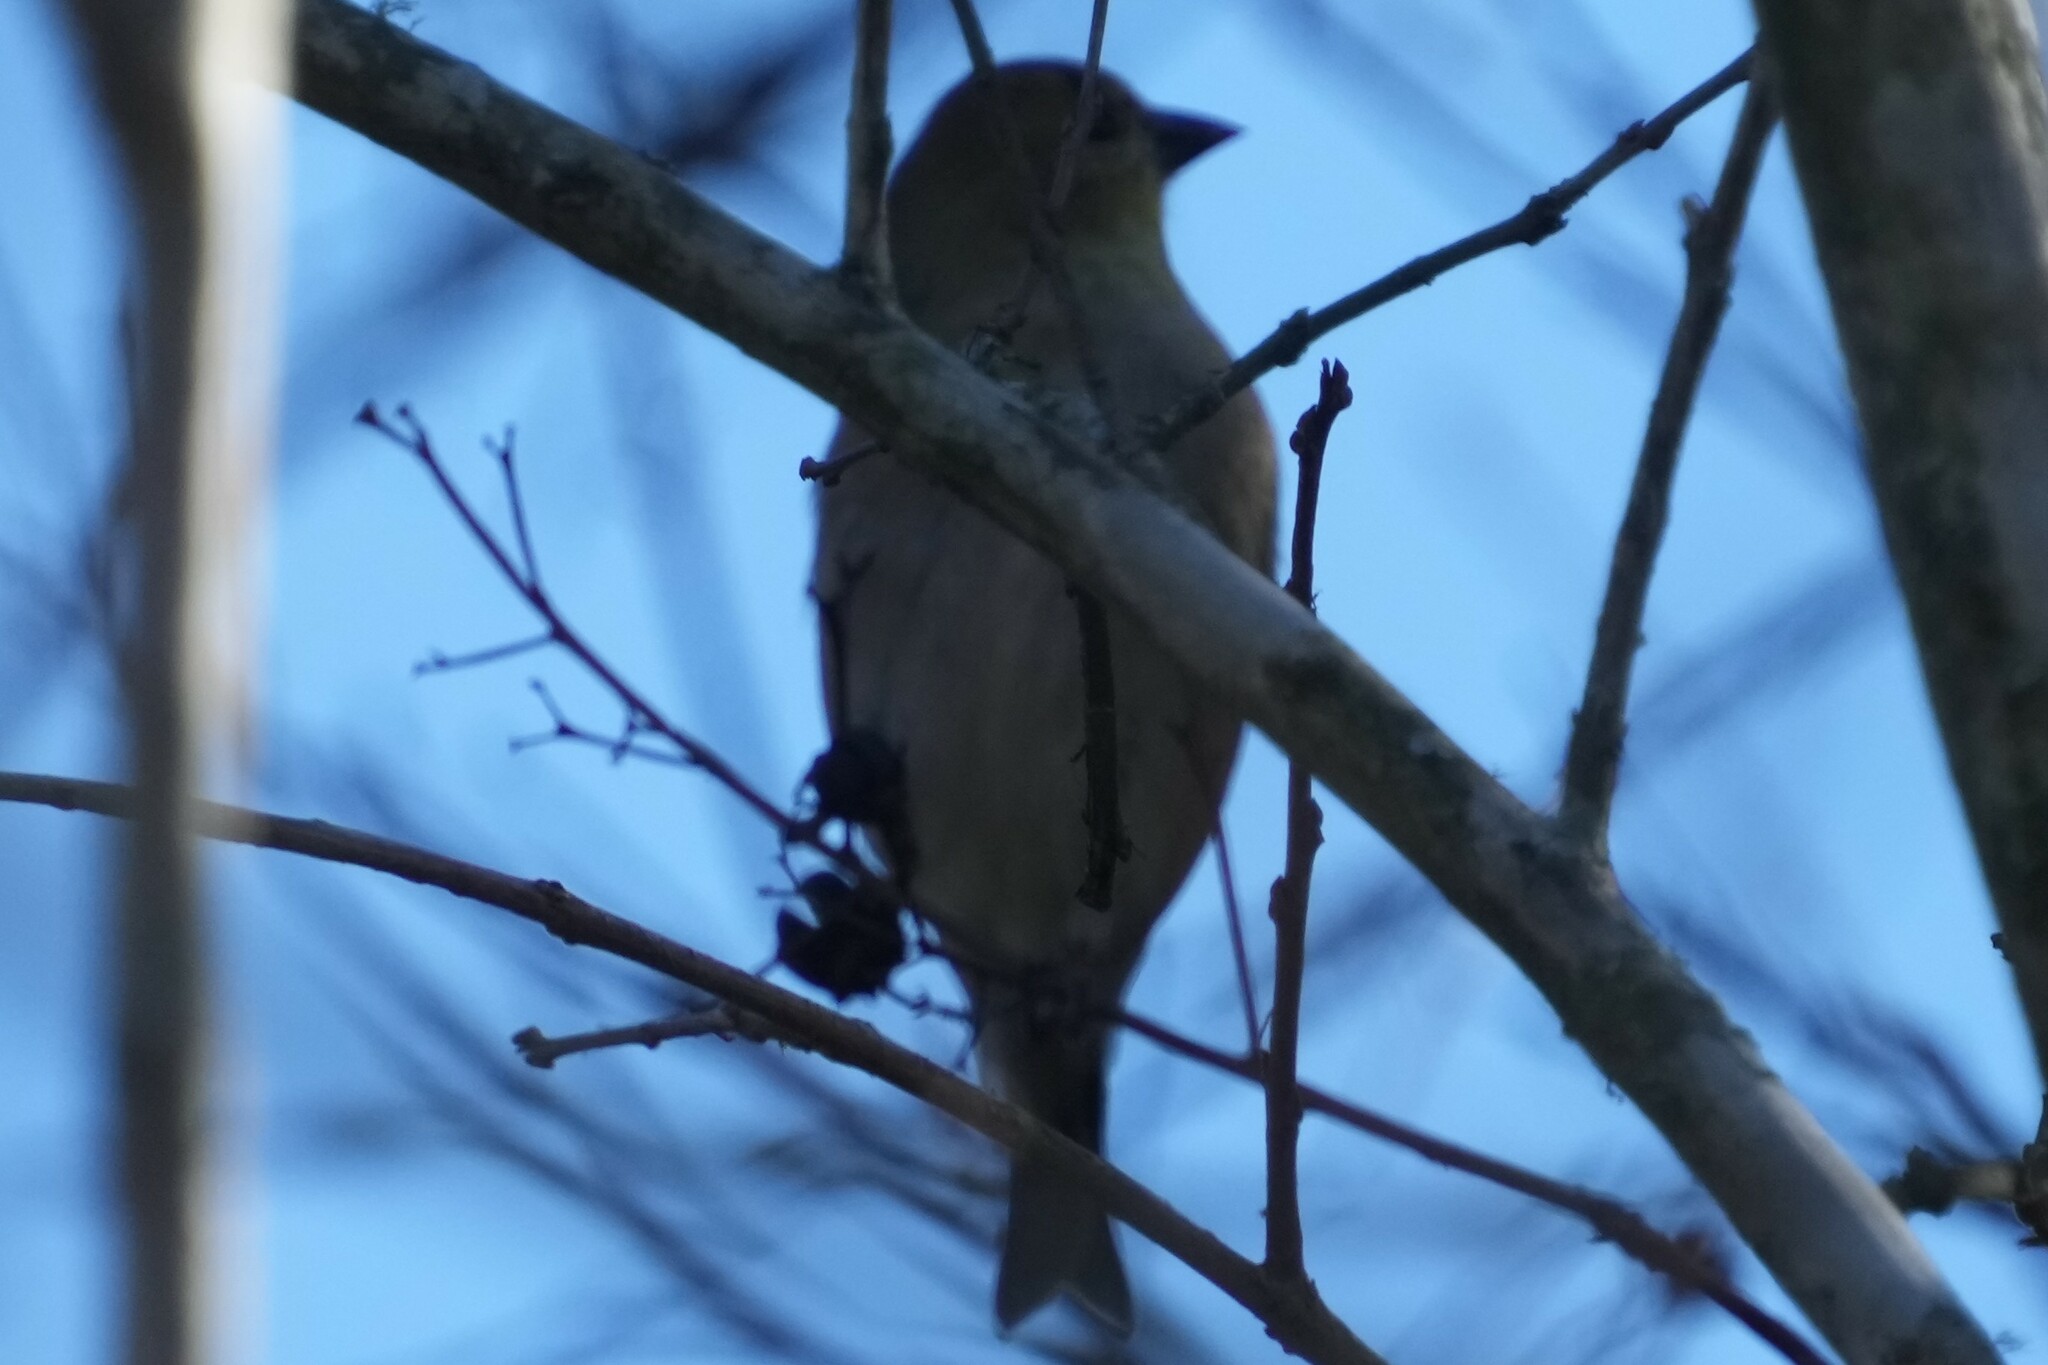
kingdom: Animalia
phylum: Chordata
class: Aves
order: Passeriformes
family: Fringillidae
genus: Spinus
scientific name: Spinus tristis
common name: American goldfinch
